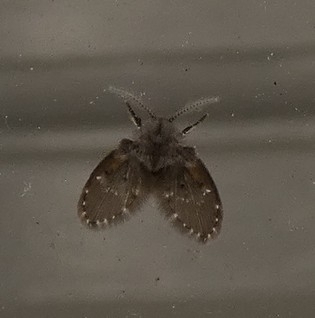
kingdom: Animalia
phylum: Arthropoda
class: Insecta
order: Diptera
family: Psychodidae
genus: Clogmia
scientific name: Clogmia albipunctatus
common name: White-spotted moth fly
